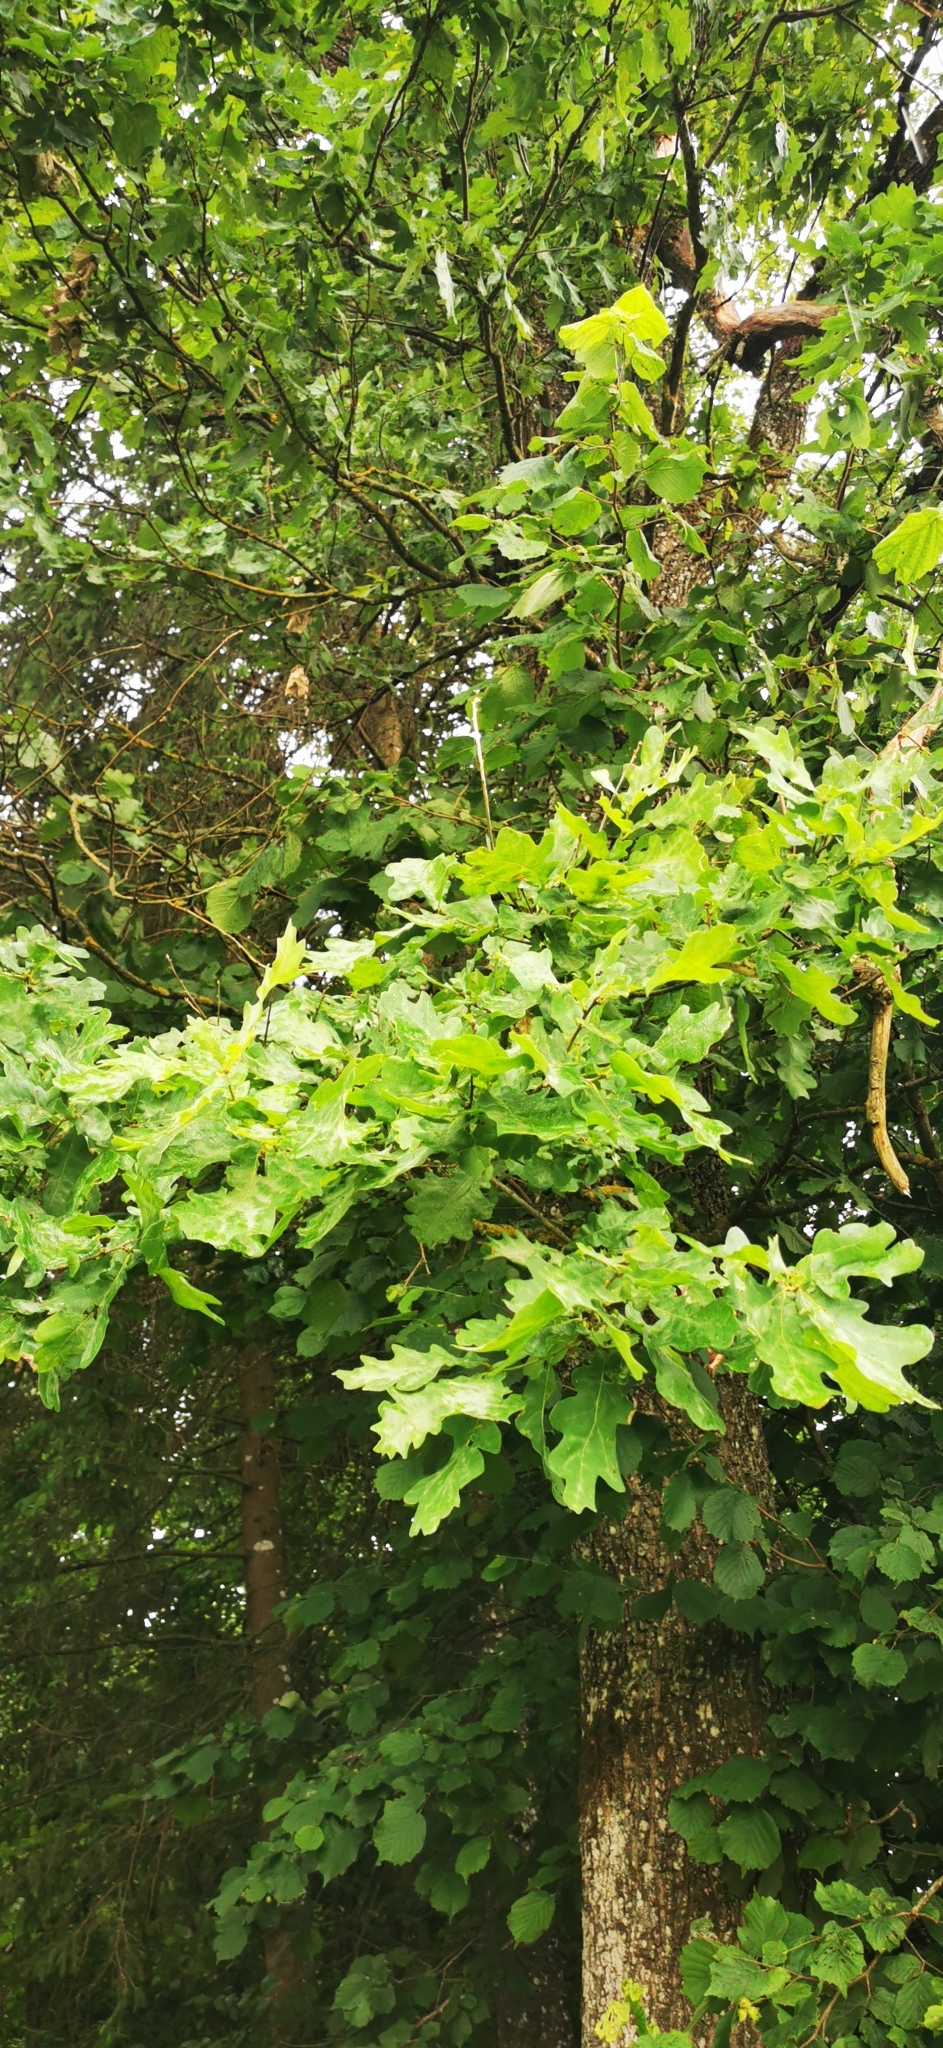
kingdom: Plantae
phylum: Tracheophyta
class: Magnoliopsida
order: Fagales
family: Fagaceae
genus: Quercus
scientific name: Quercus robur
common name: Pedunculate oak
